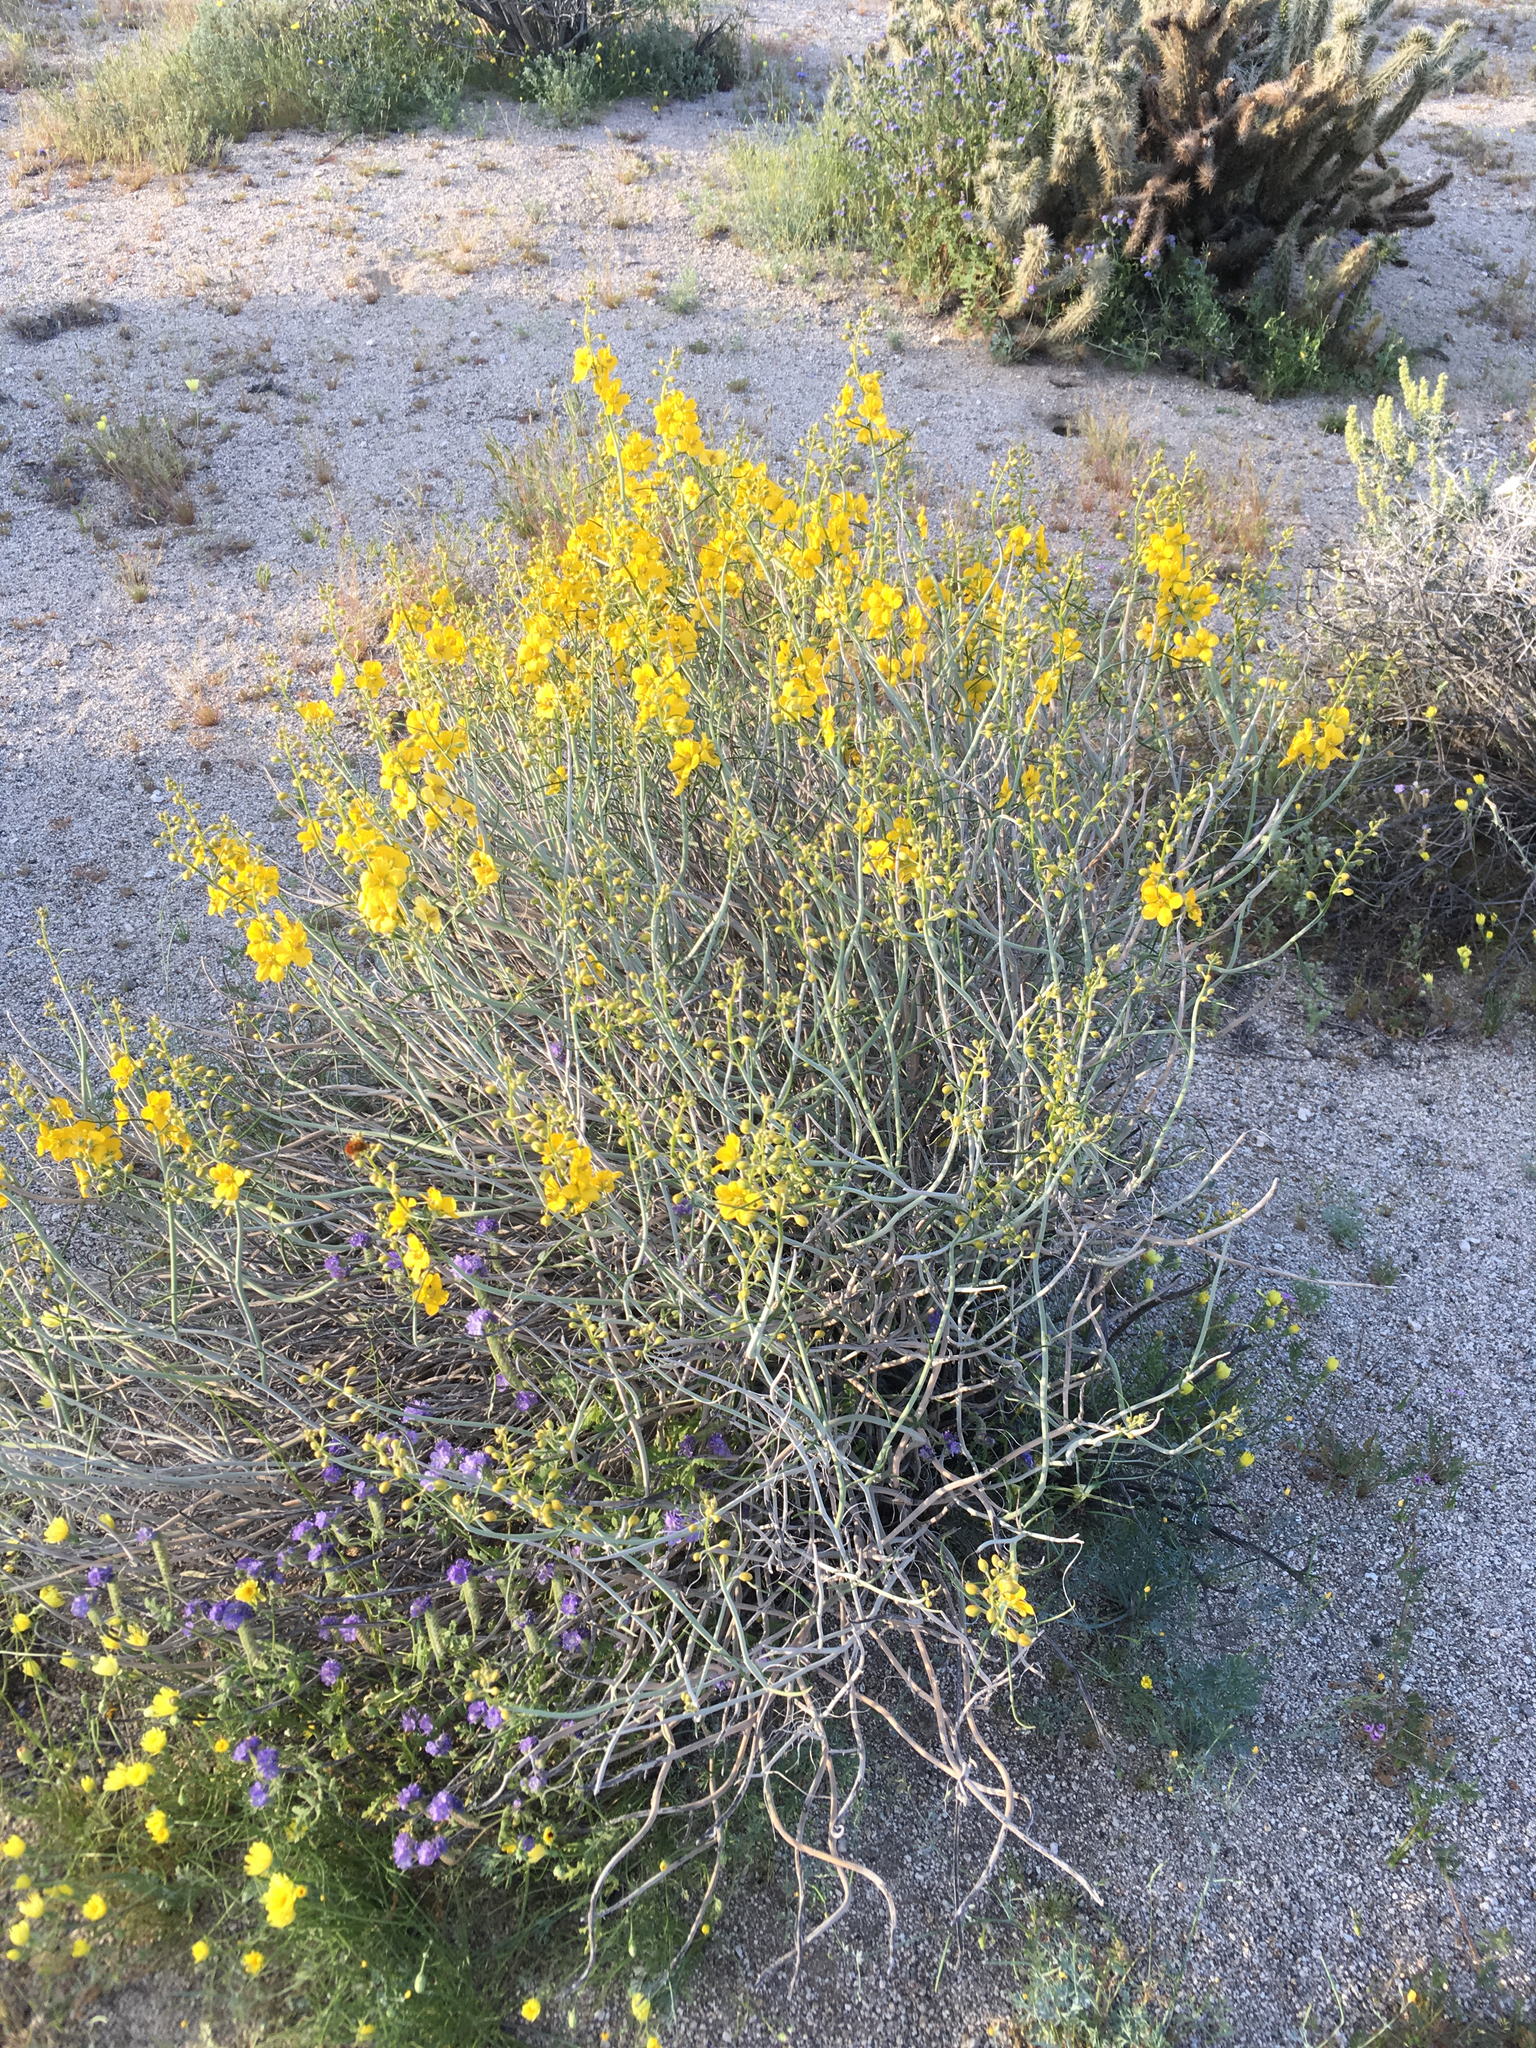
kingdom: Plantae
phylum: Tracheophyta
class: Magnoliopsida
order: Fabales
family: Fabaceae
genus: Senna
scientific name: Senna armata
